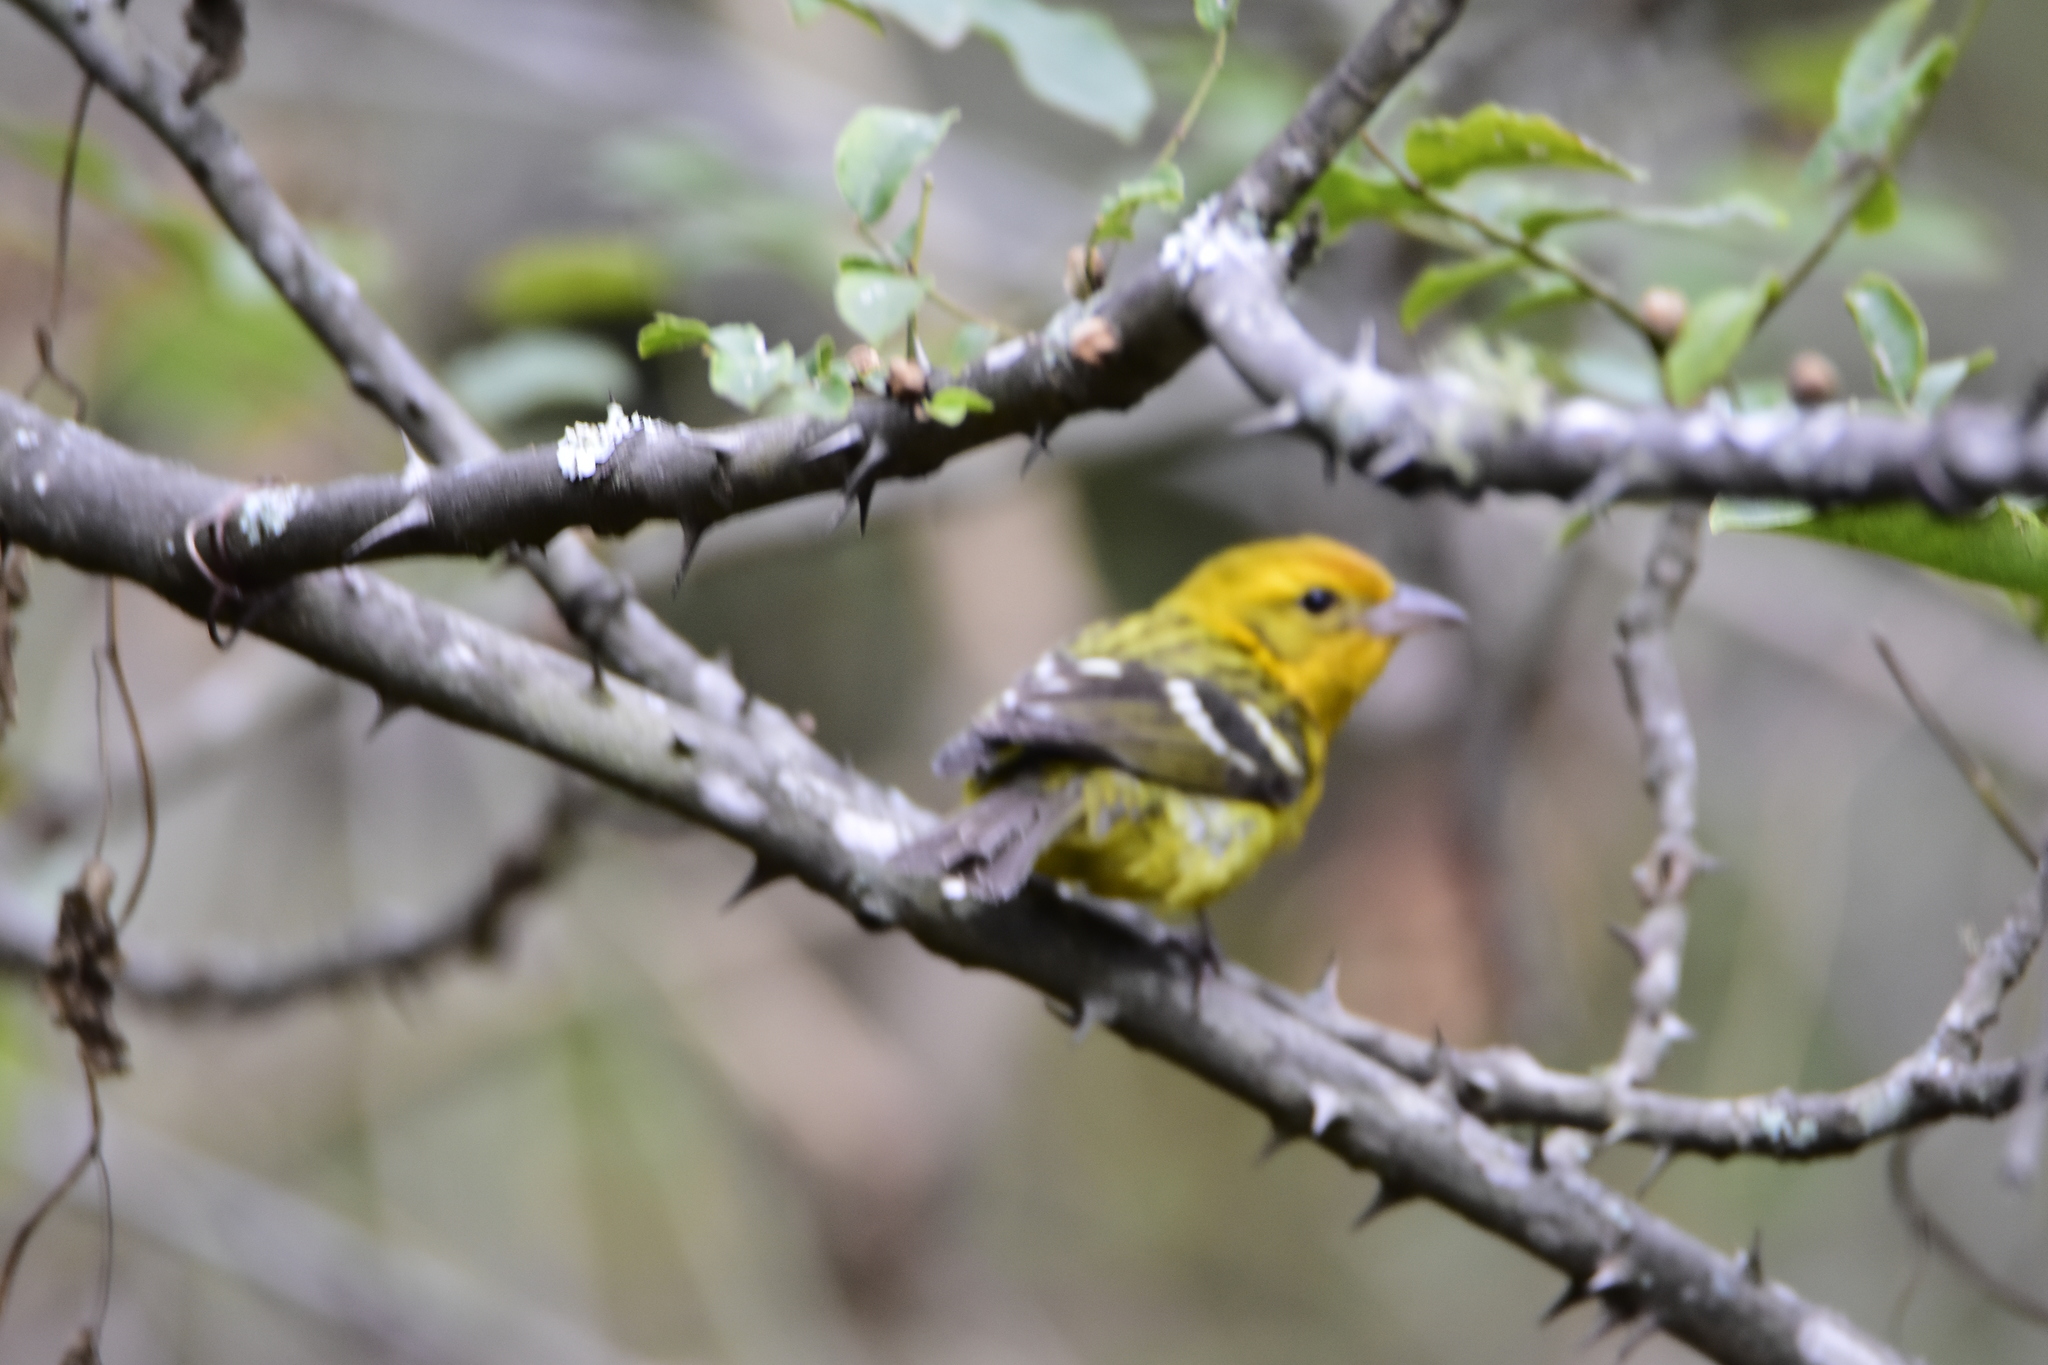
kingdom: Animalia
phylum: Chordata
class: Aves
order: Passeriformes
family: Cardinalidae
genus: Piranga
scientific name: Piranga bidentata
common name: Flame-colored tanager
